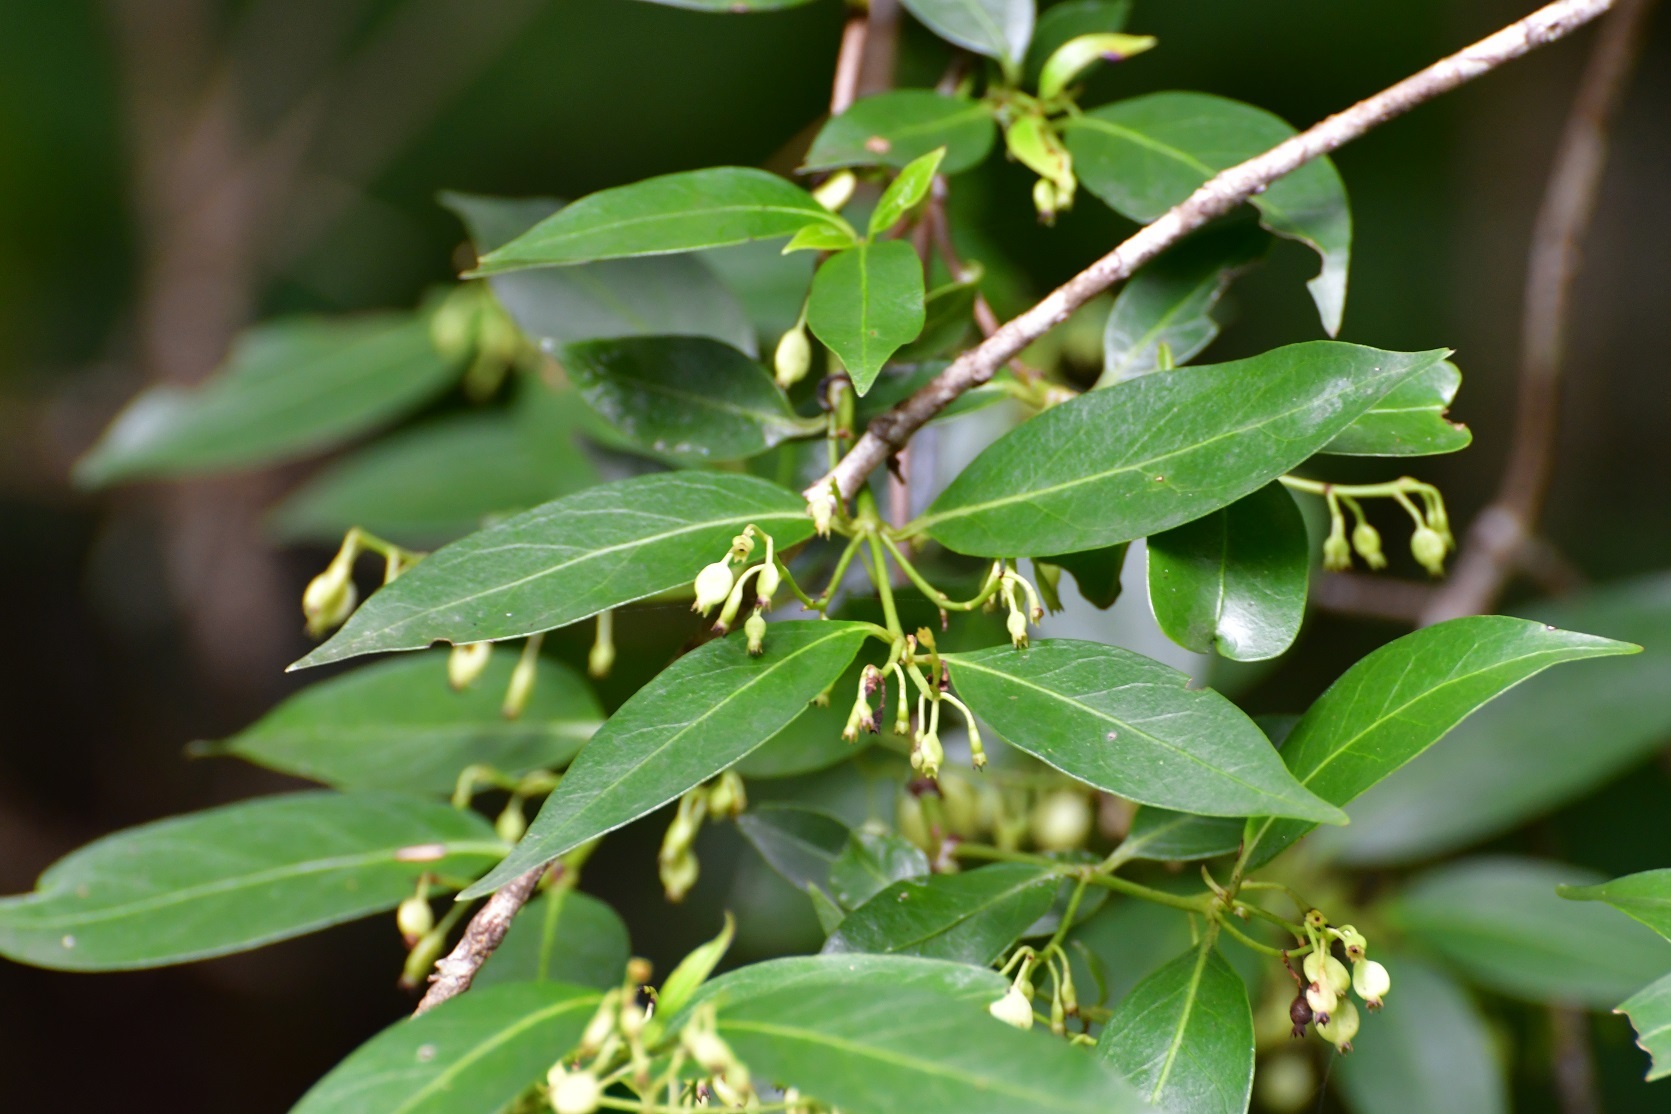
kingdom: Plantae
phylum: Tracheophyta
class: Magnoliopsida
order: Gentianales
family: Rubiaceae
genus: Chiococca
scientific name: Chiococca alba
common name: Snowberry
